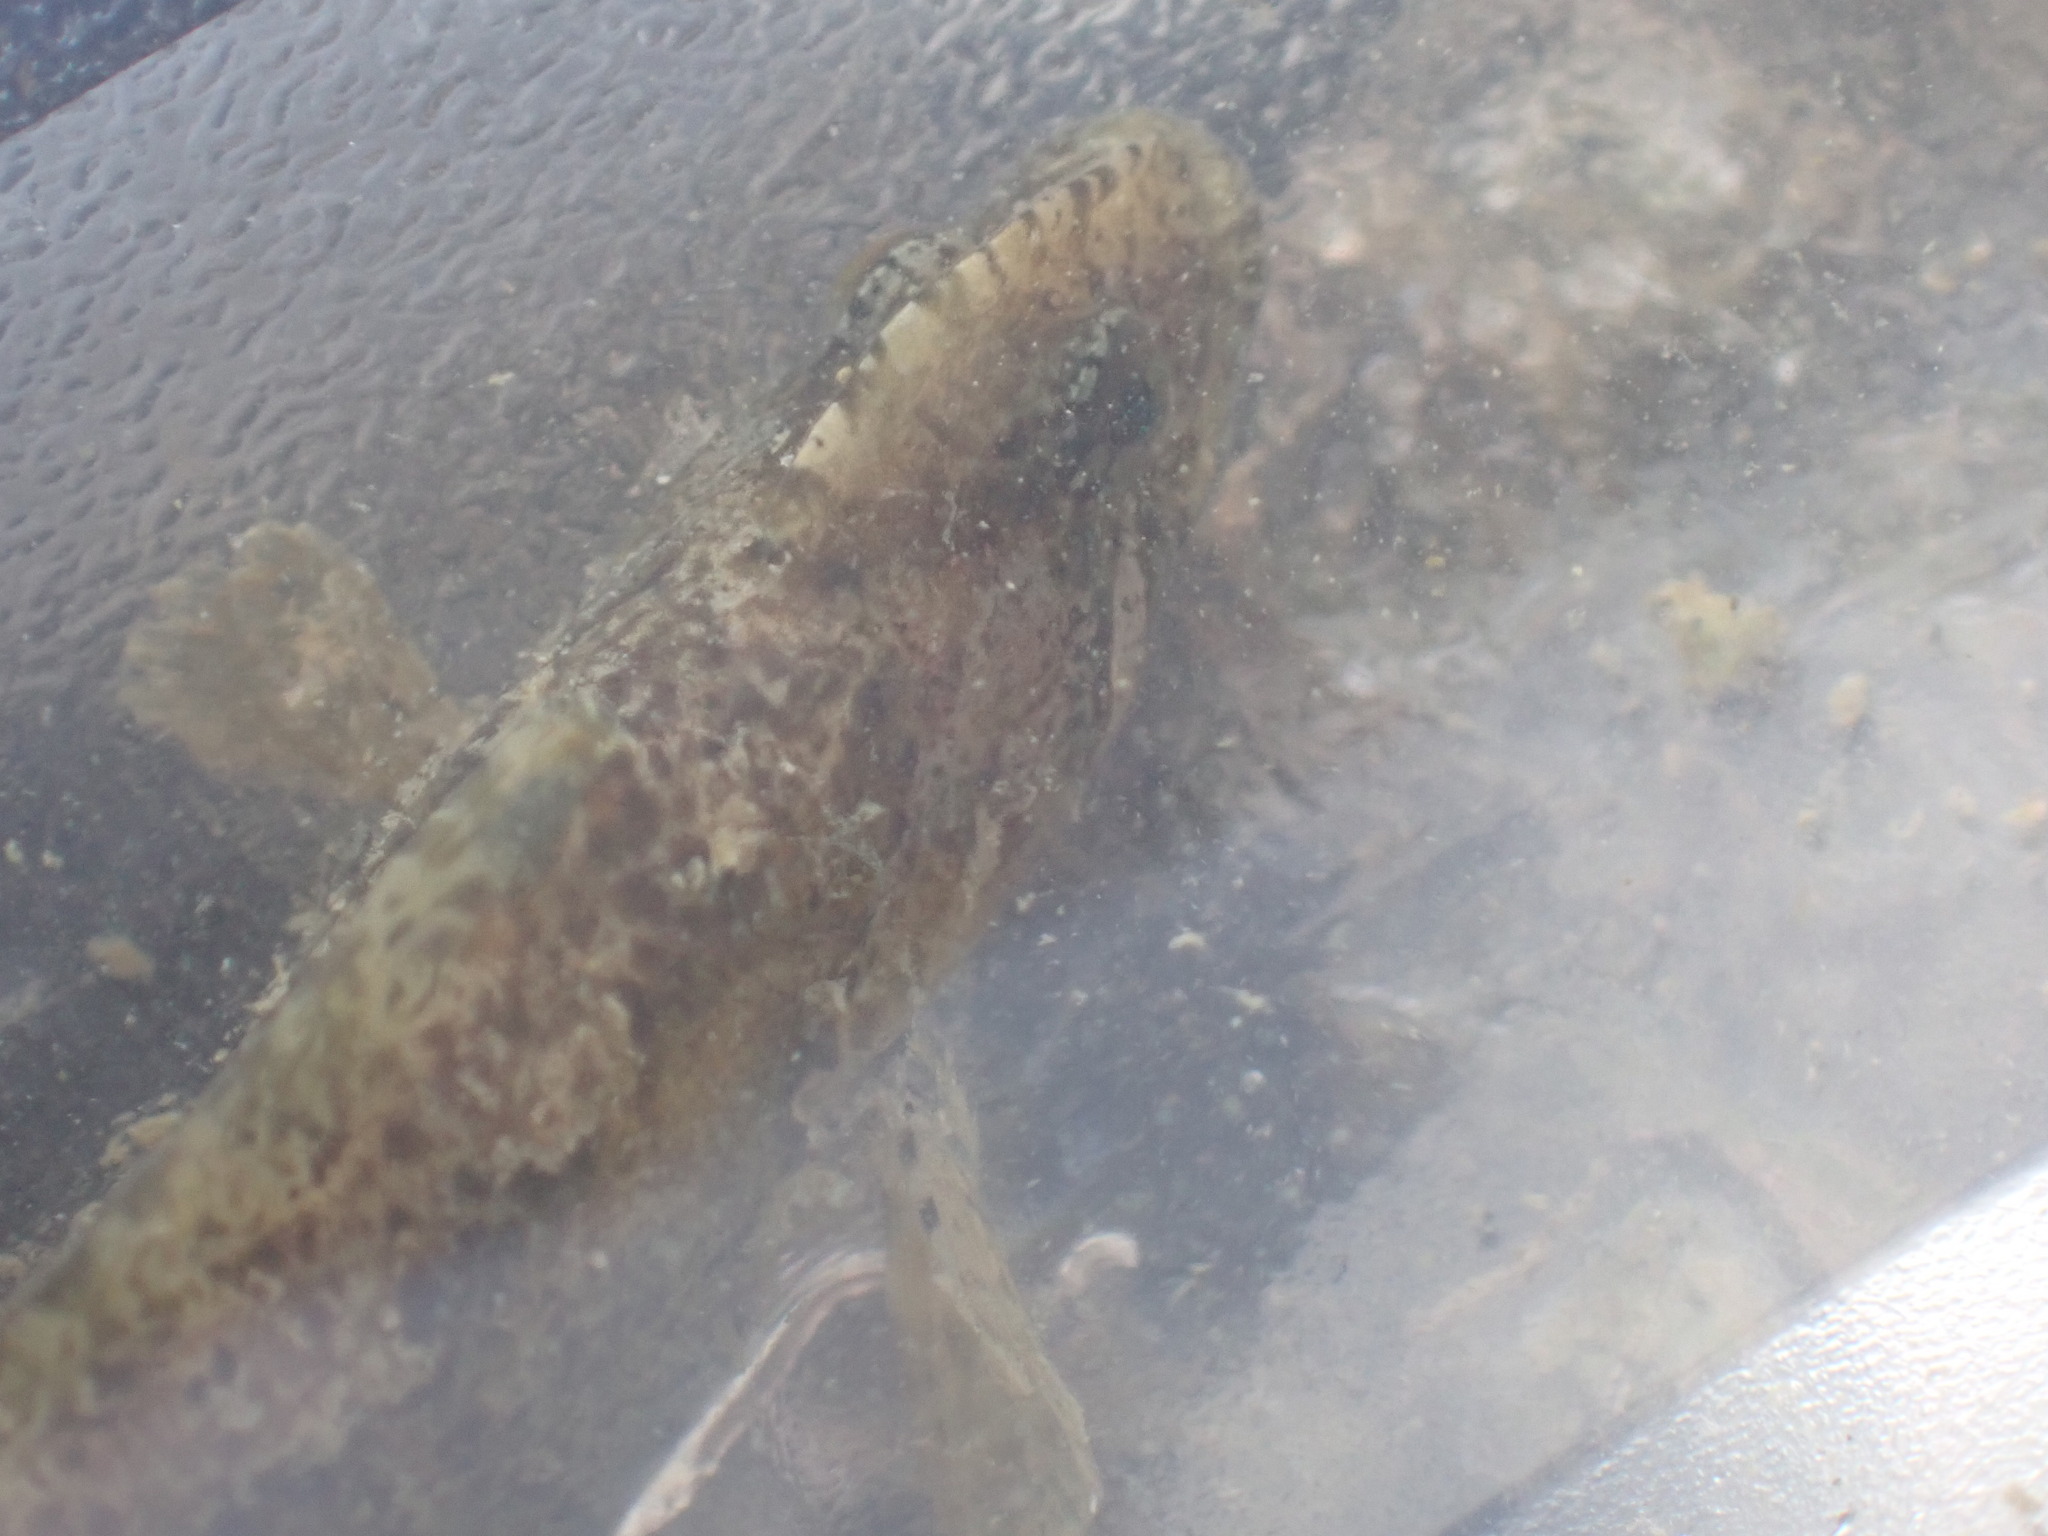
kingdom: Animalia
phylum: Chordata
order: Perciformes
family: Stichaeidae
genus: Anoplarchus
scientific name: Anoplarchus purpurescens
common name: High cockscomb
